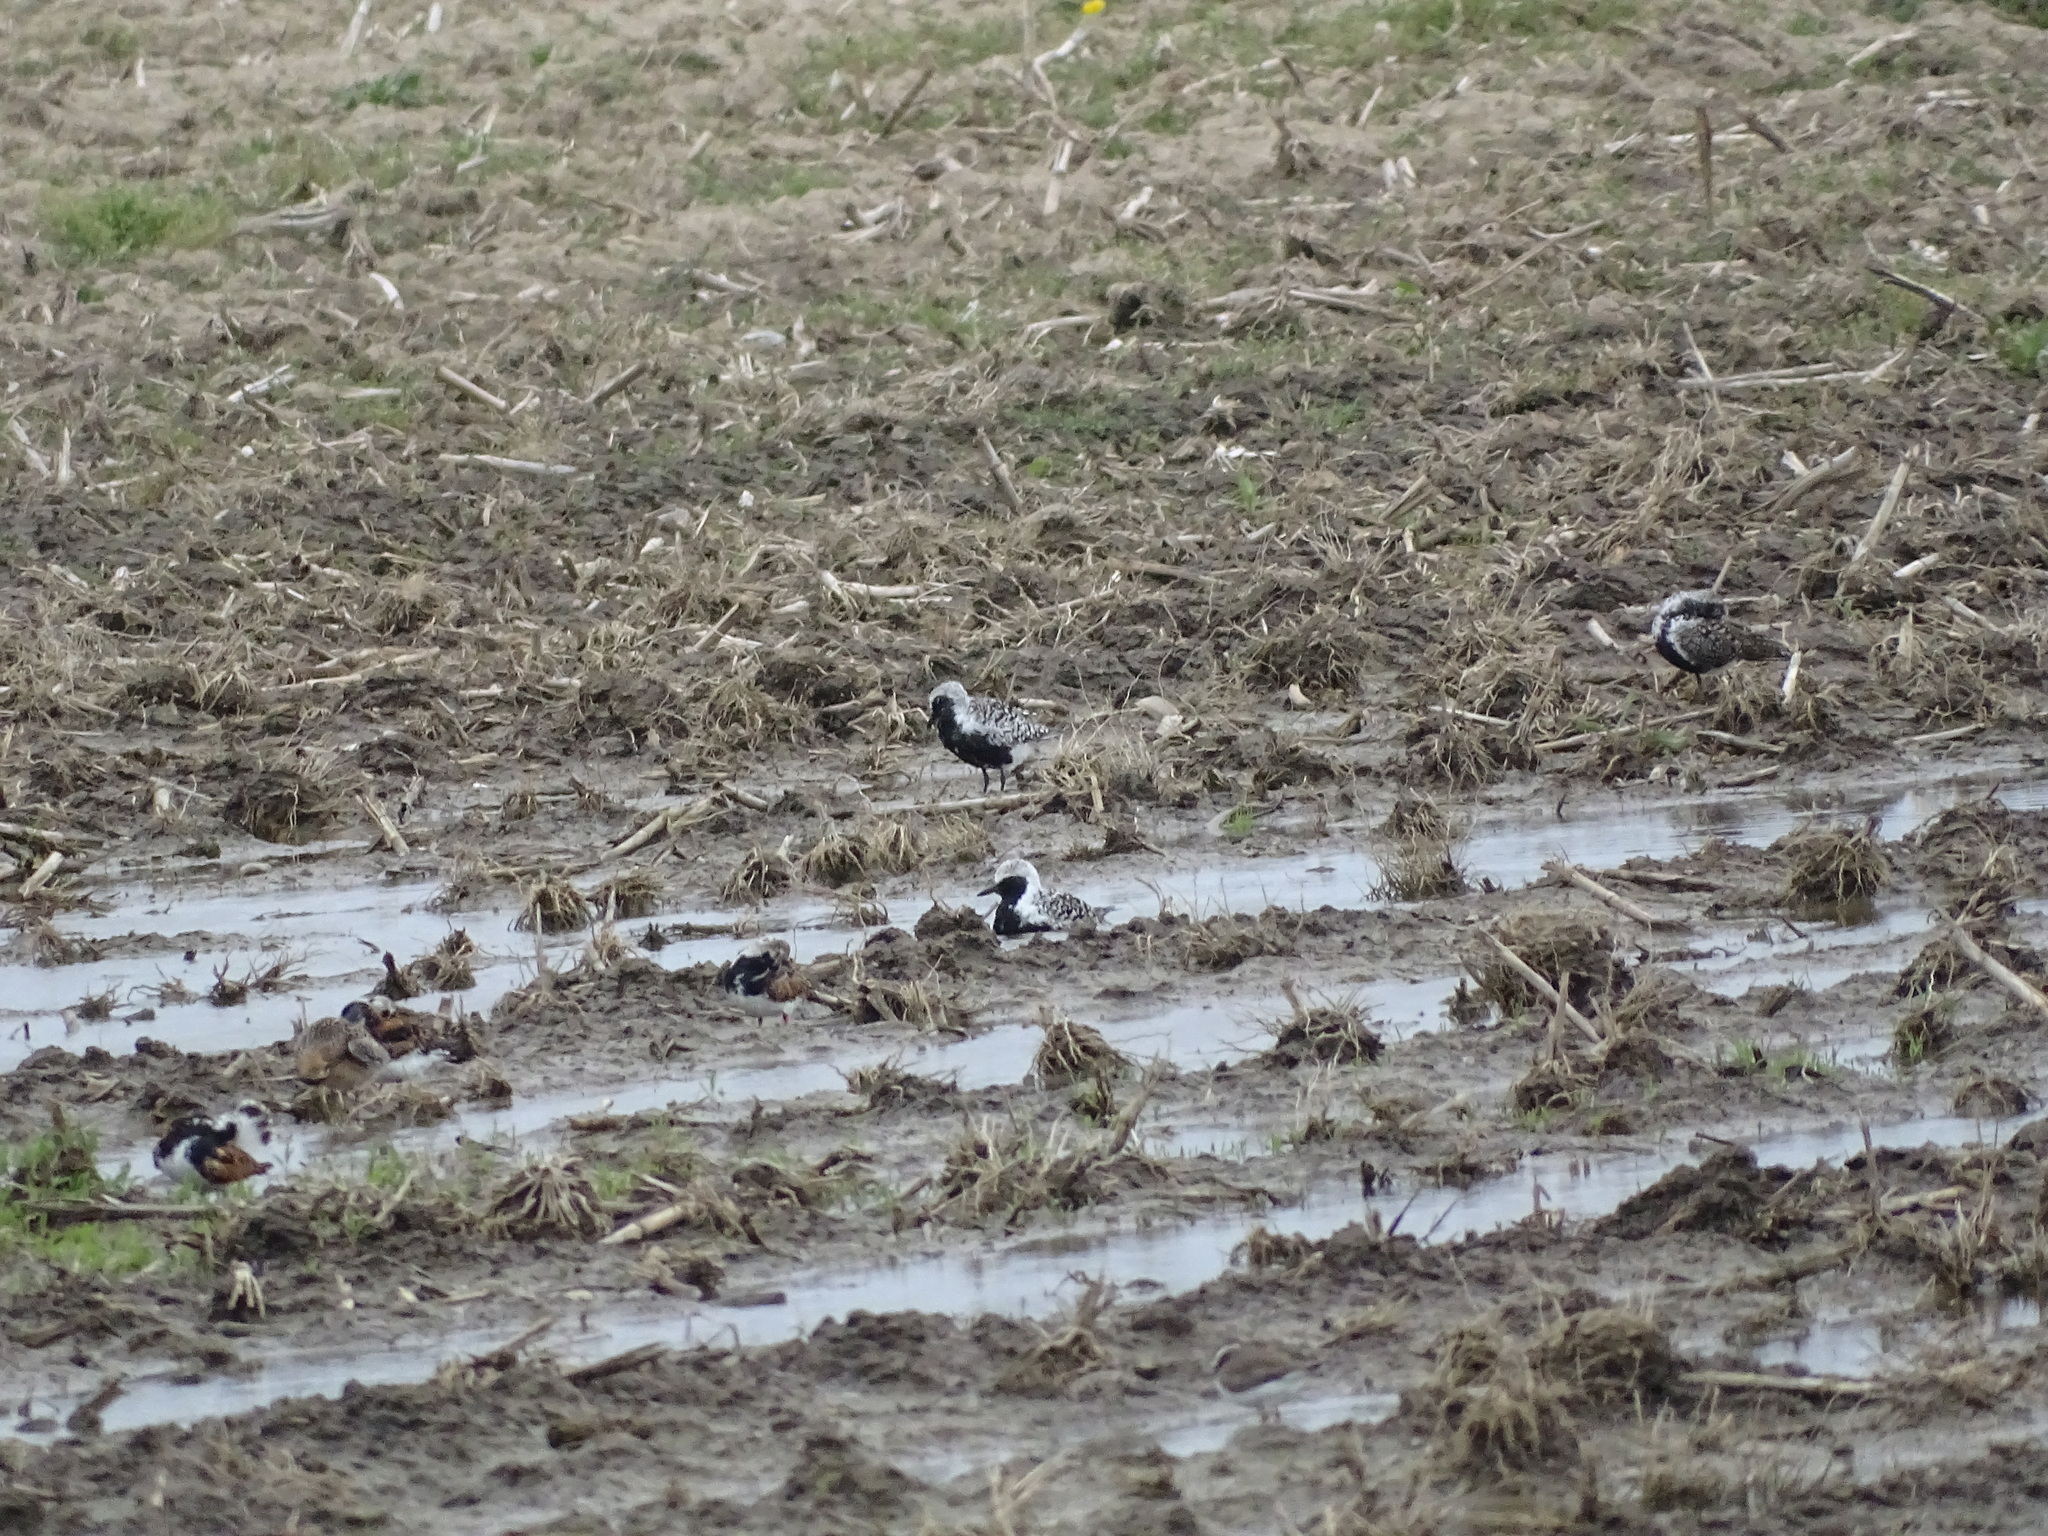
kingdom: Animalia
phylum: Chordata
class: Aves
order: Charadriiformes
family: Charadriidae
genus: Pluvialis
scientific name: Pluvialis squatarola
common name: Grey plover
